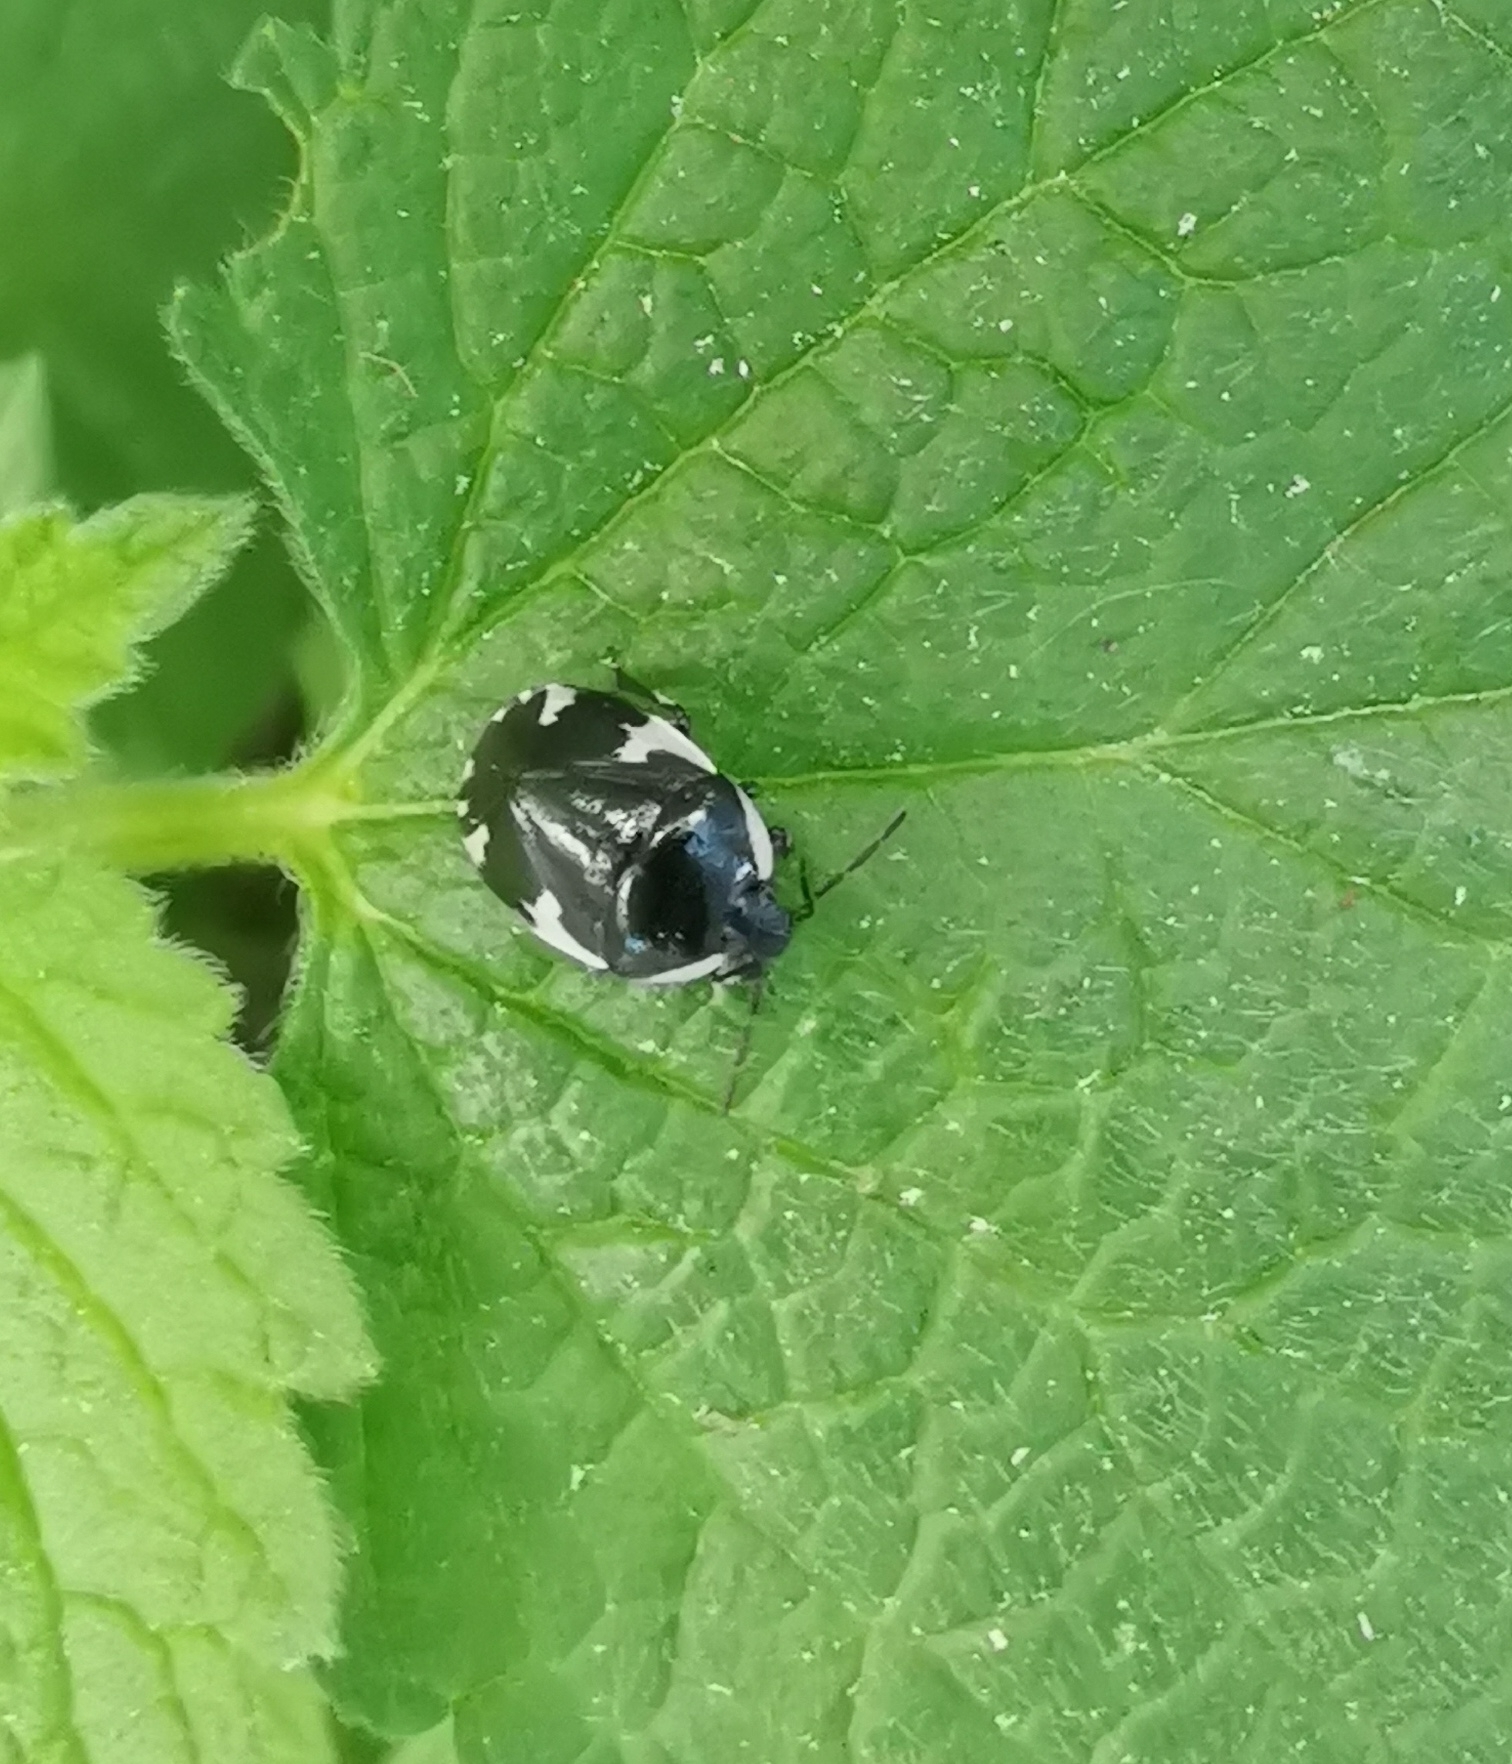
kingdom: Animalia
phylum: Arthropoda
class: Insecta
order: Hemiptera
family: Cydnidae
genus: Tritomegas
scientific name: Tritomegas sexmaculatus
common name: Rambur's pied shieldbug
